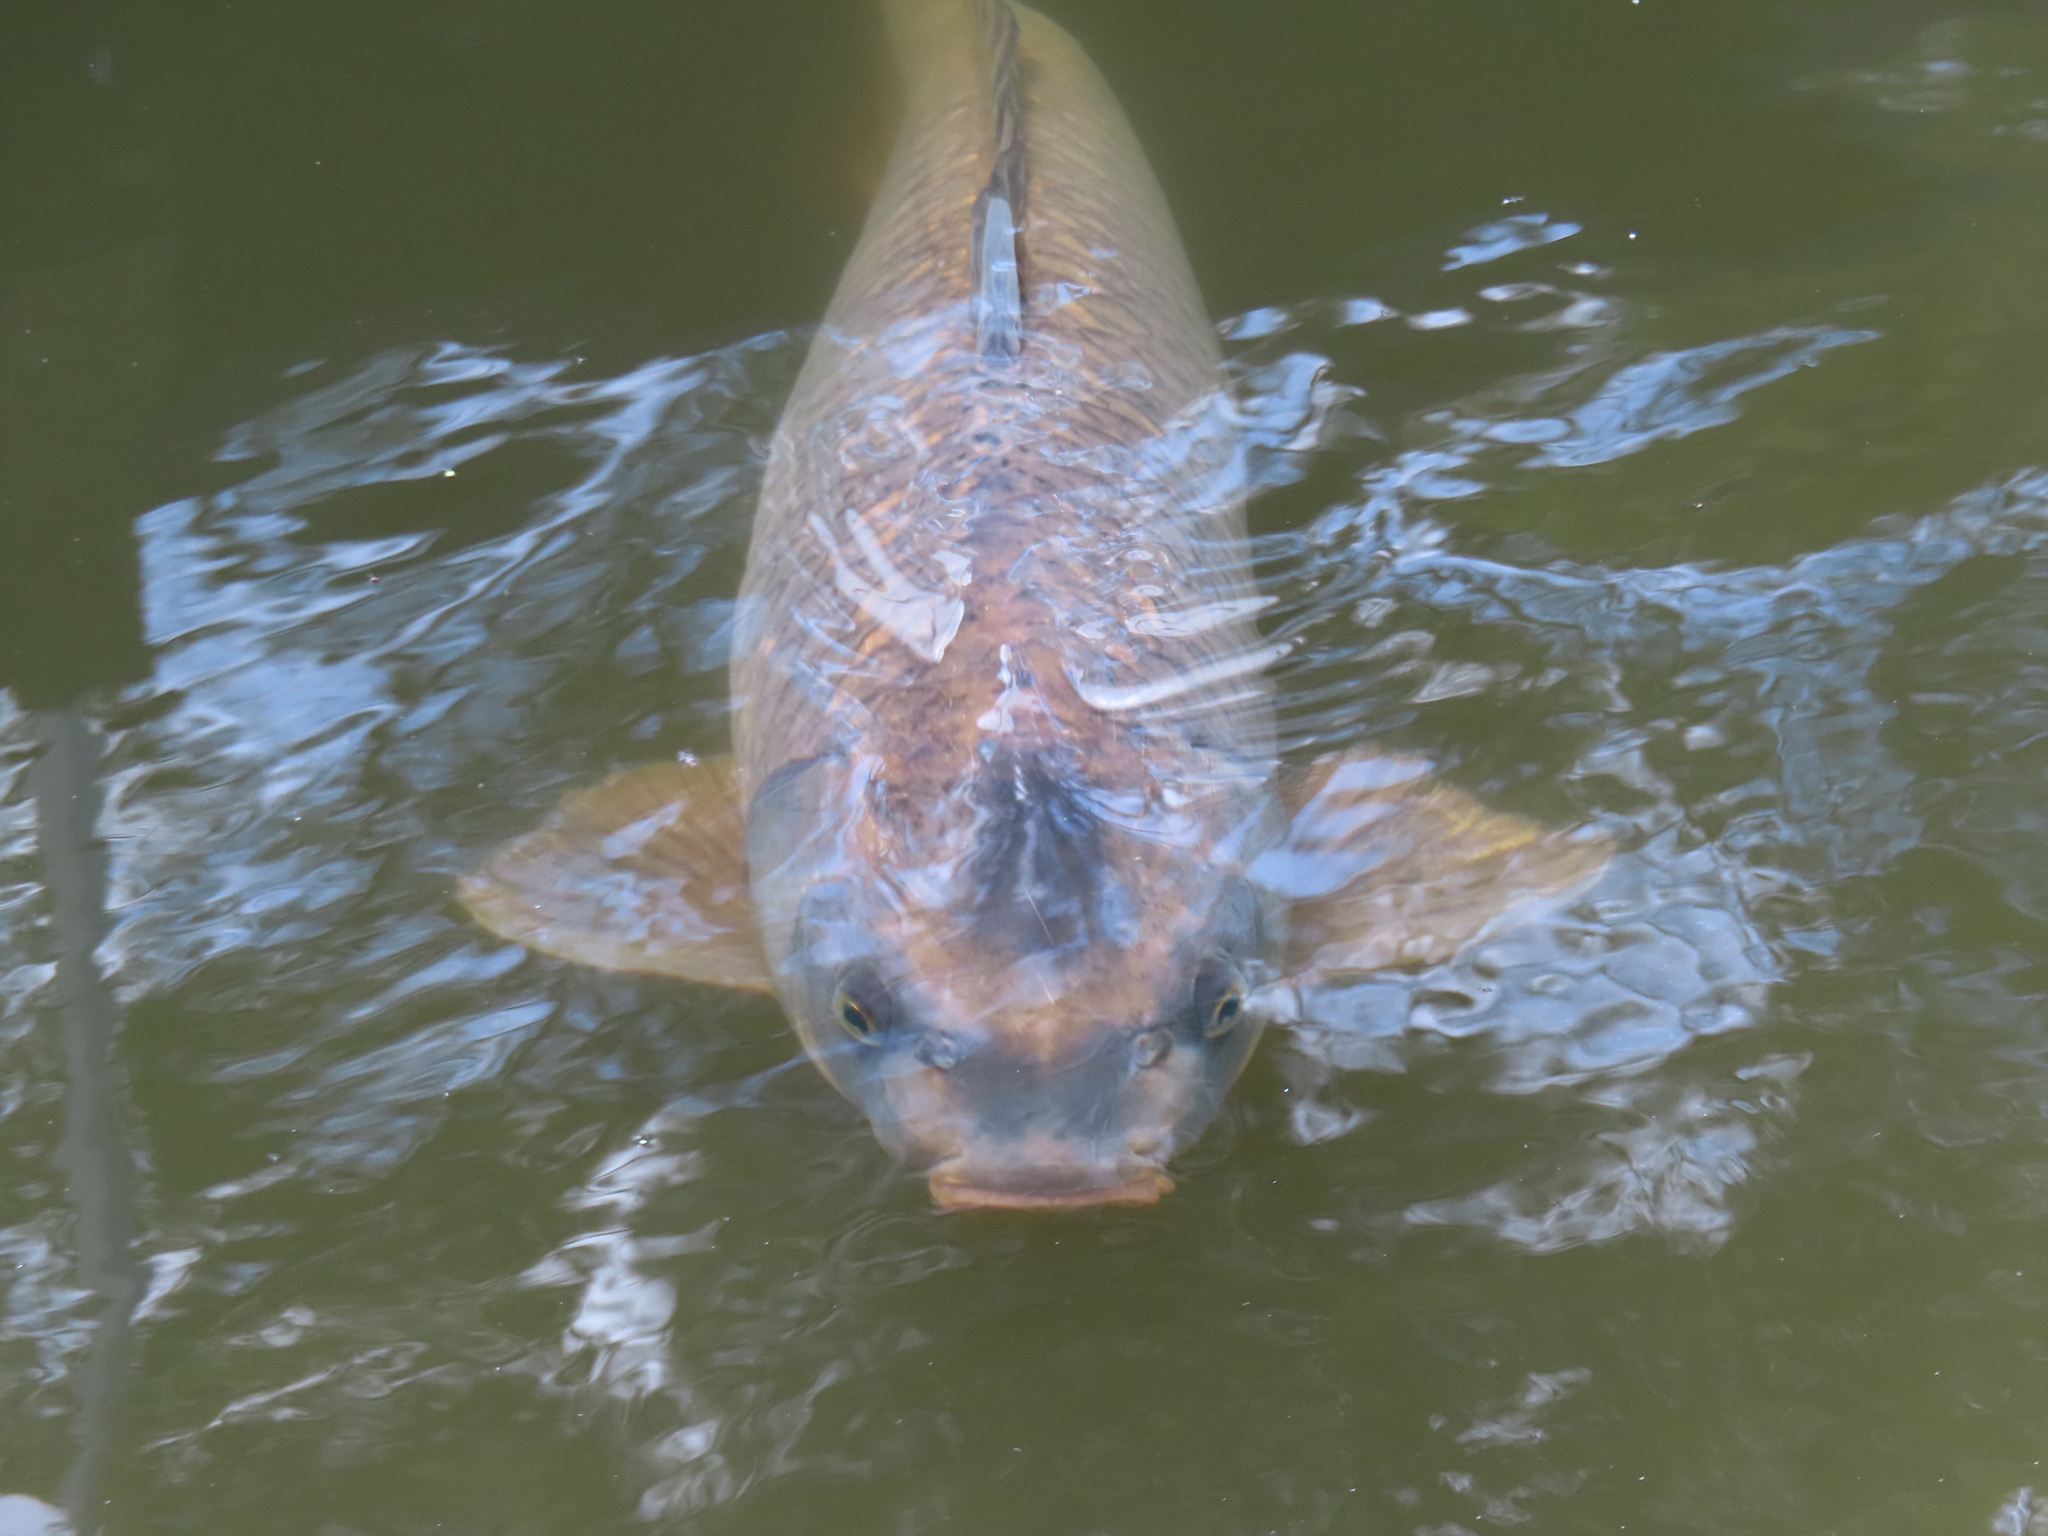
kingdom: Animalia
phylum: Chordata
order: Cypriniformes
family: Cyprinidae
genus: Cyprinus
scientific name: Cyprinus carpio
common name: Common carp
